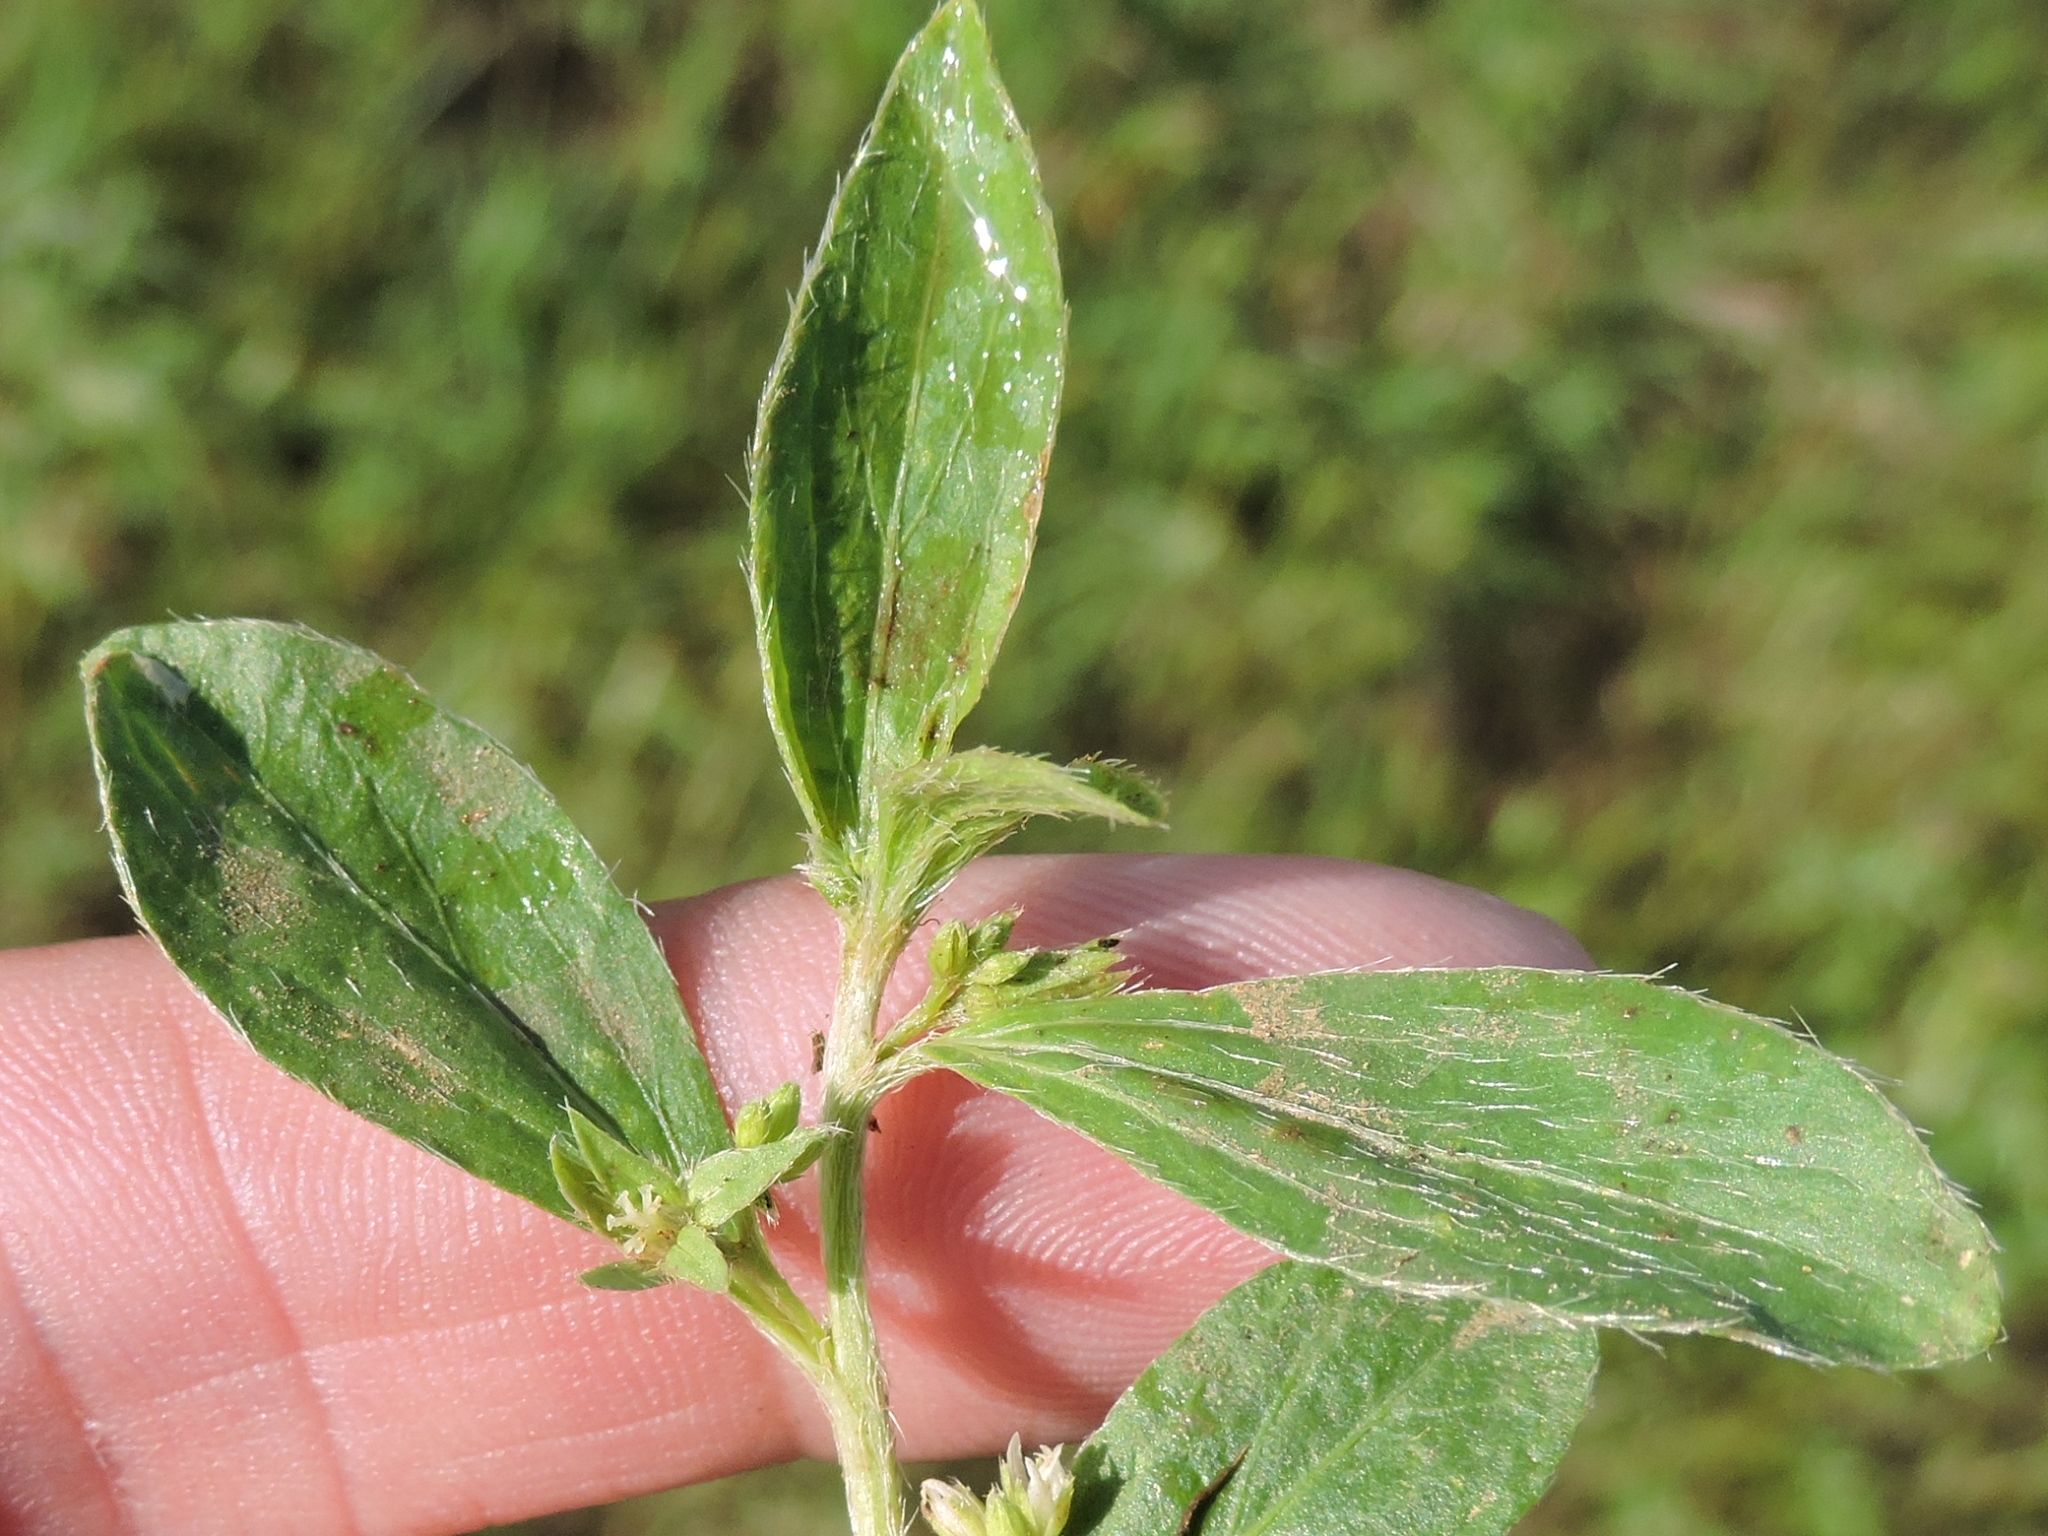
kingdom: Plantae
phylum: Tracheophyta
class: Magnoliopsida
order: Malpighiales
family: Euphorbiaceae
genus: Ditaxis
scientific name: Ditaxis humilis
